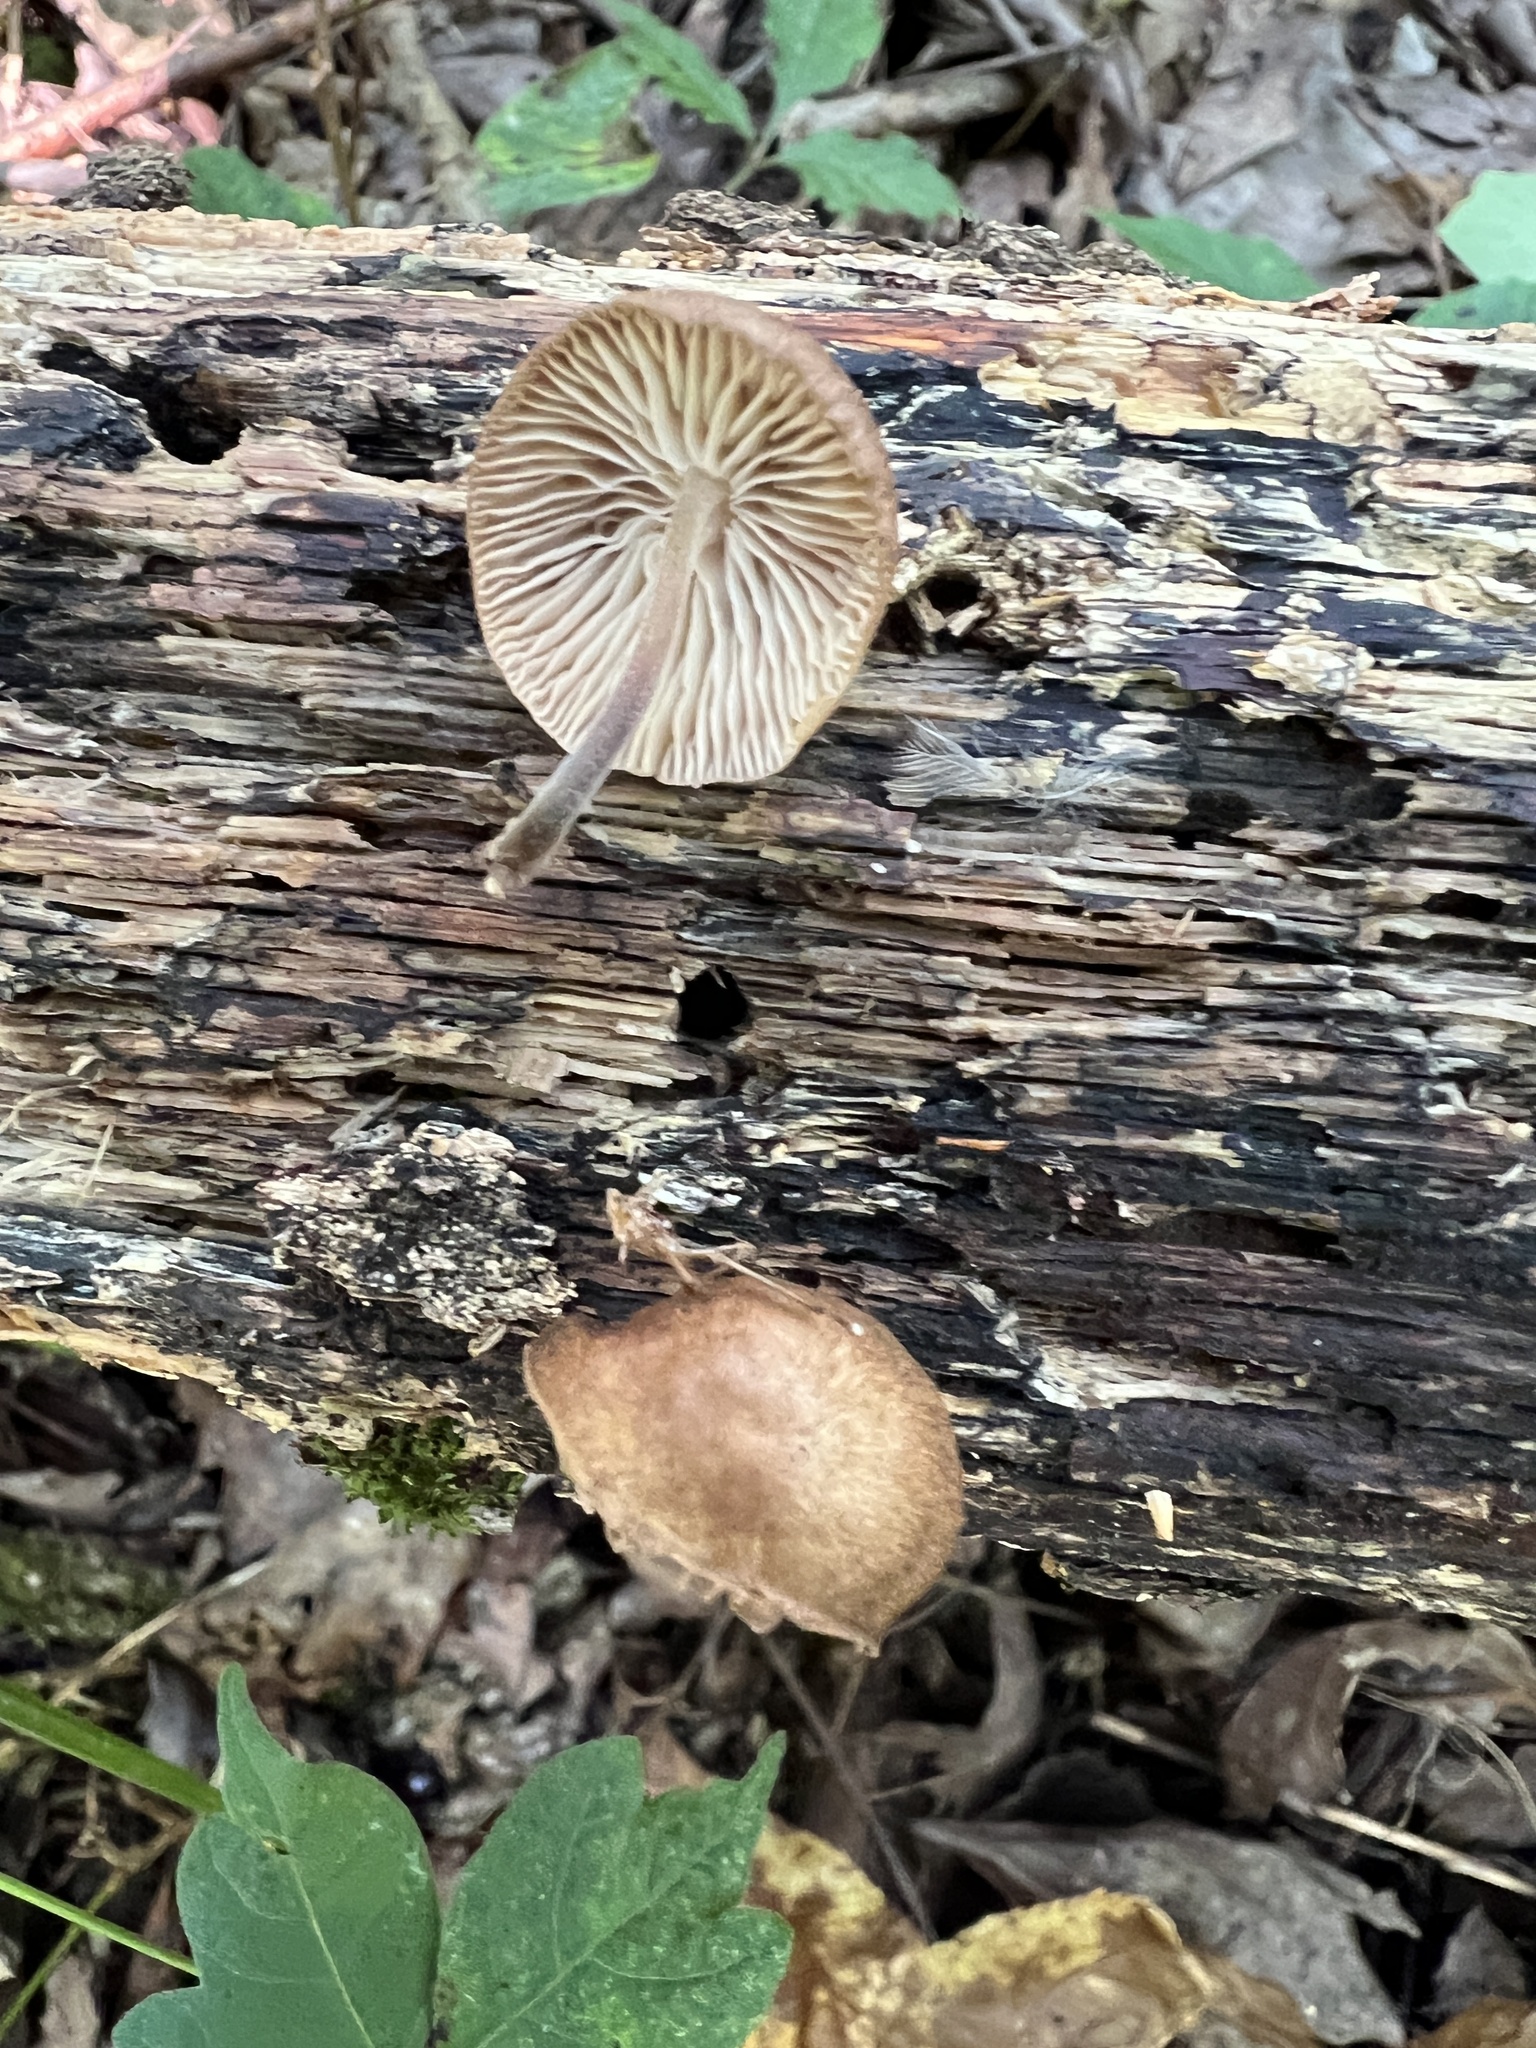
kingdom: Fungi
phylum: Basidiomycota
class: Agaricomycetes
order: Agaricales
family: Omphalotaceae
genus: Collybiopsis
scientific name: Collybiopsis dichroa
